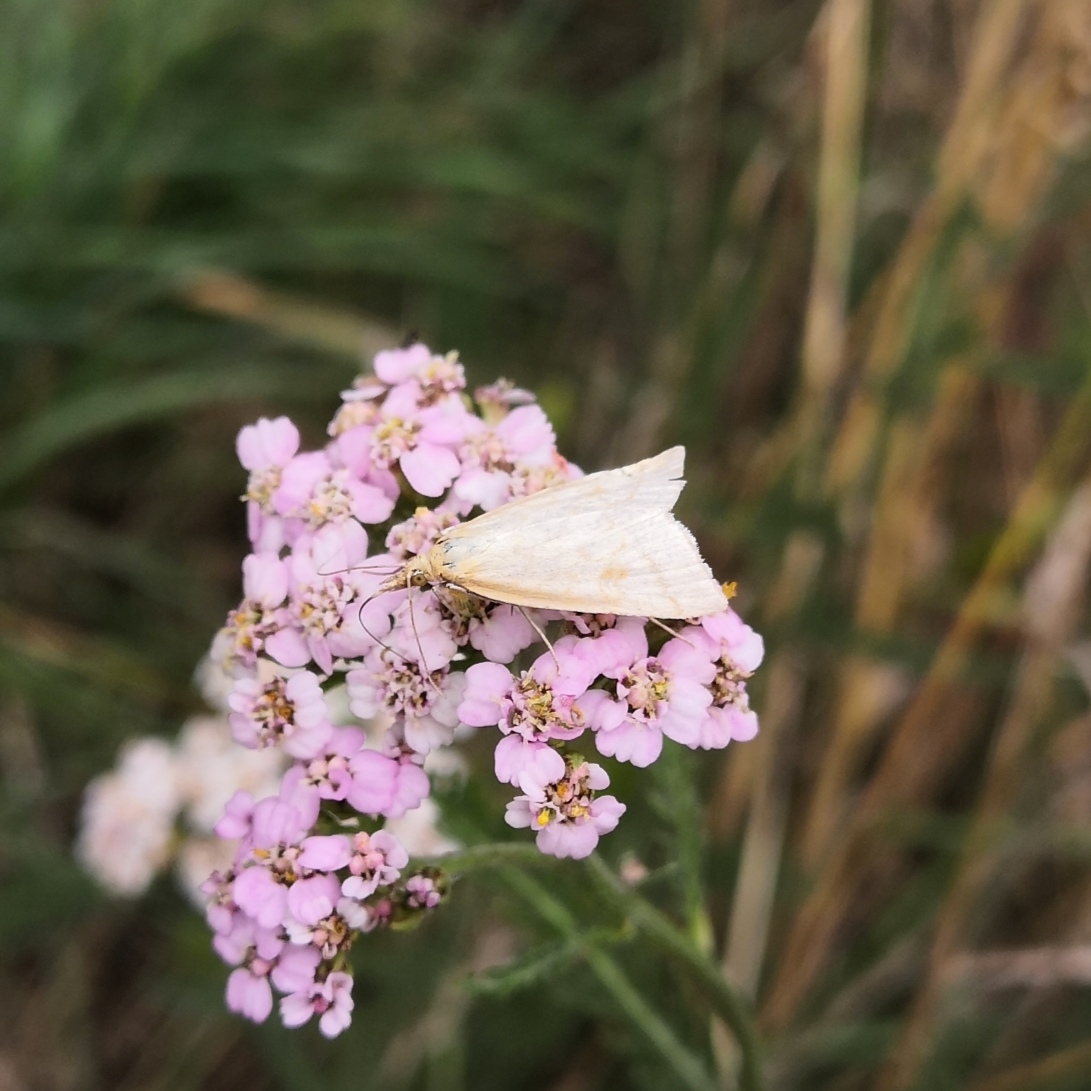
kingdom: Animalia
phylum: Arthropoda
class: Insecta
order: Lepidoptera
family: Crambidae
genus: Udea
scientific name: Udea lutealis
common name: Pale straw pearl
